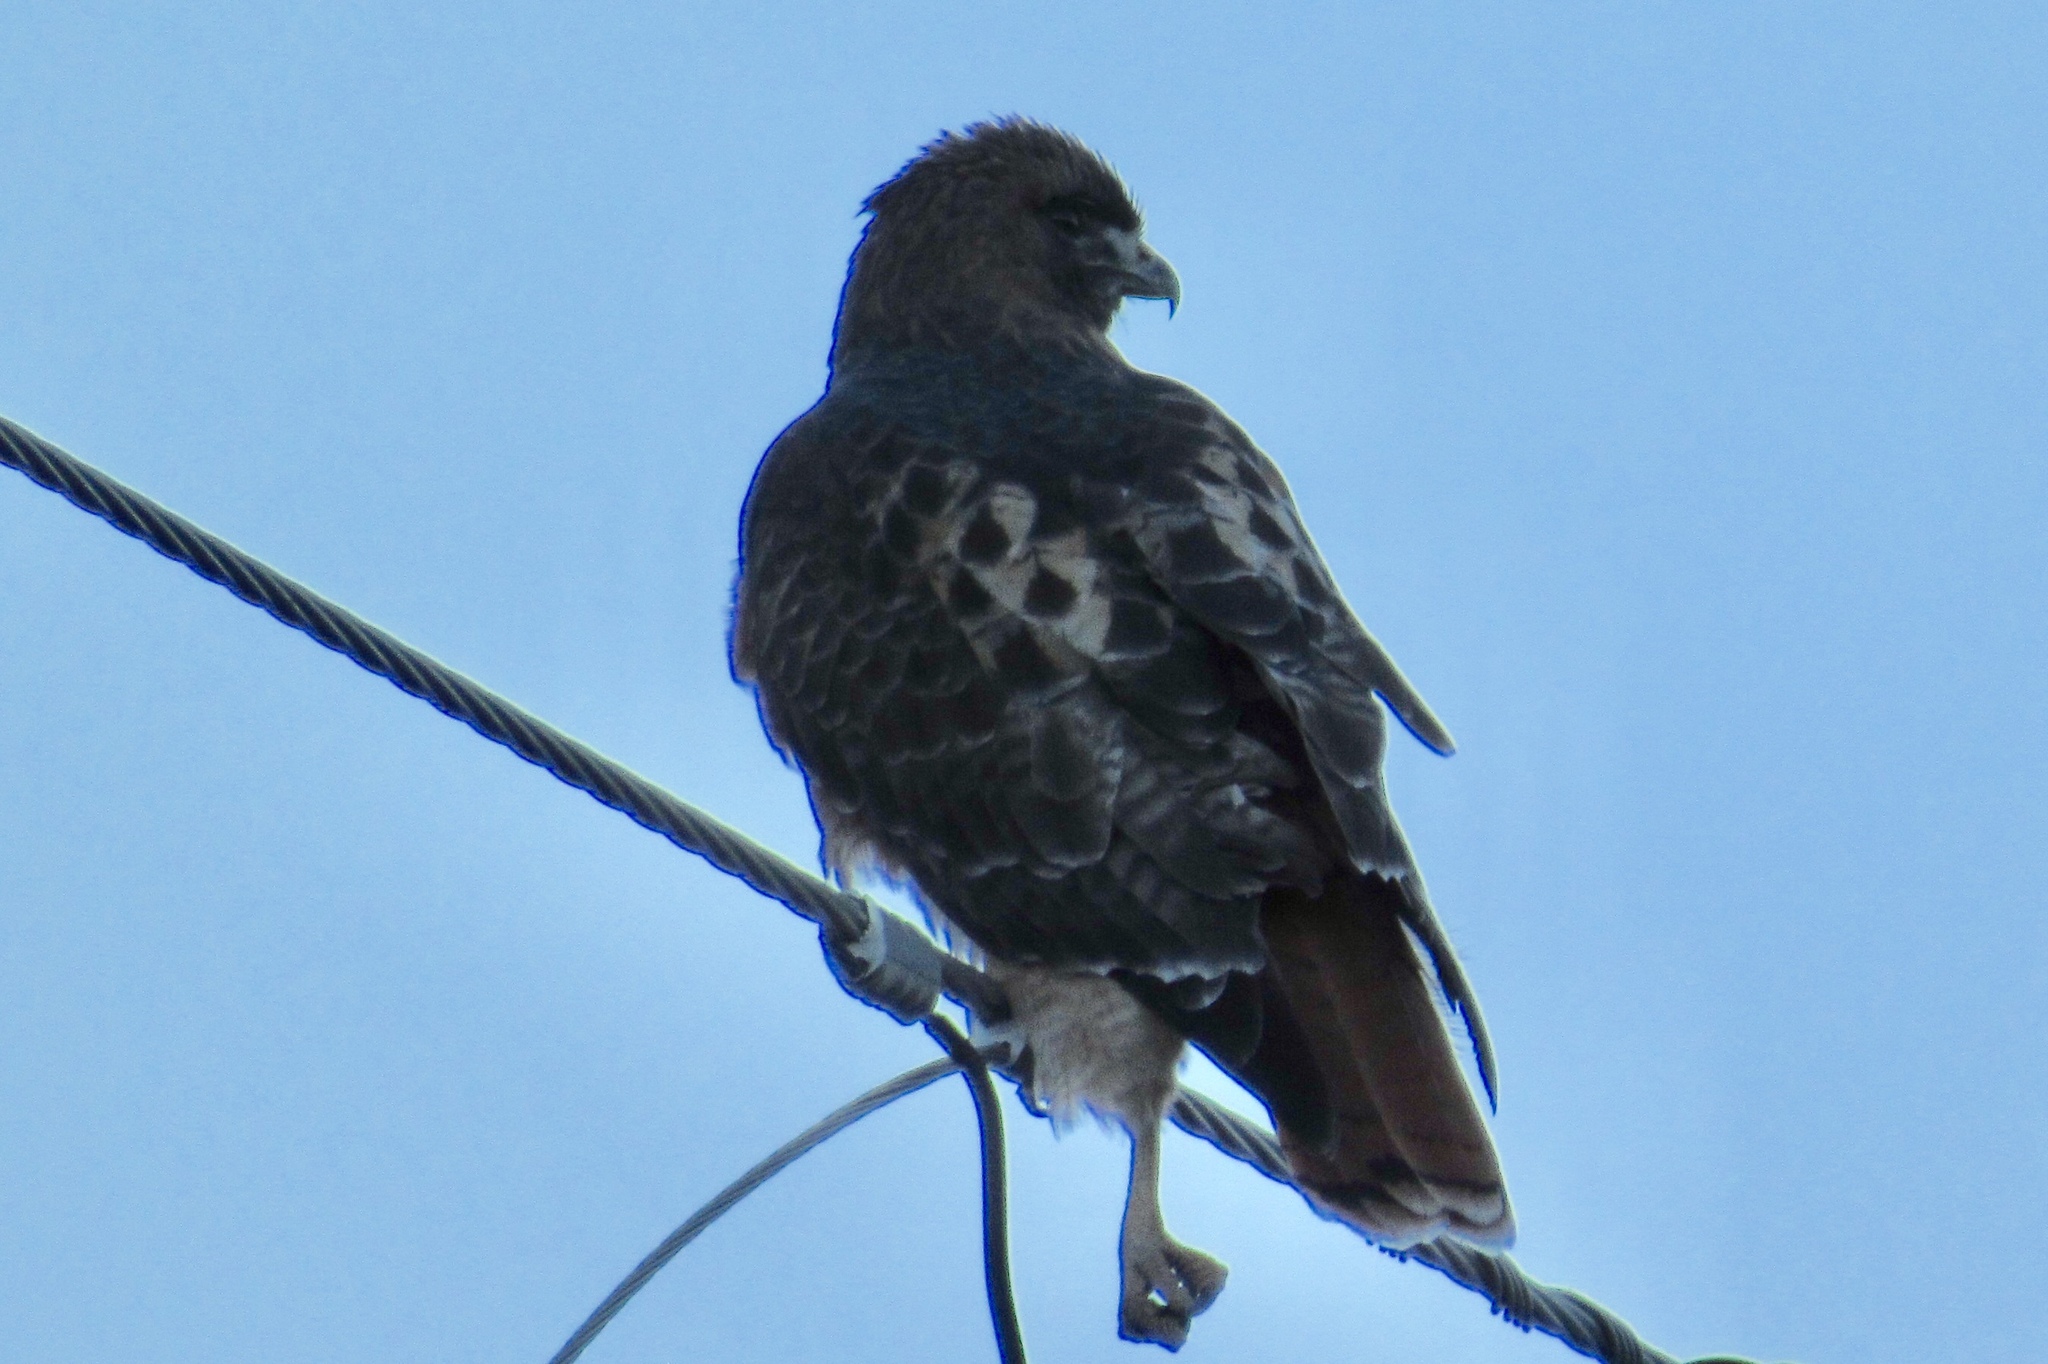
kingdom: Animalia
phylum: Chordata
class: Aves
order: Accipitriformes
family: Accipitridae
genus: Buteo
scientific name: Buteo jamaicensis
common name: Red-tailed hawk
